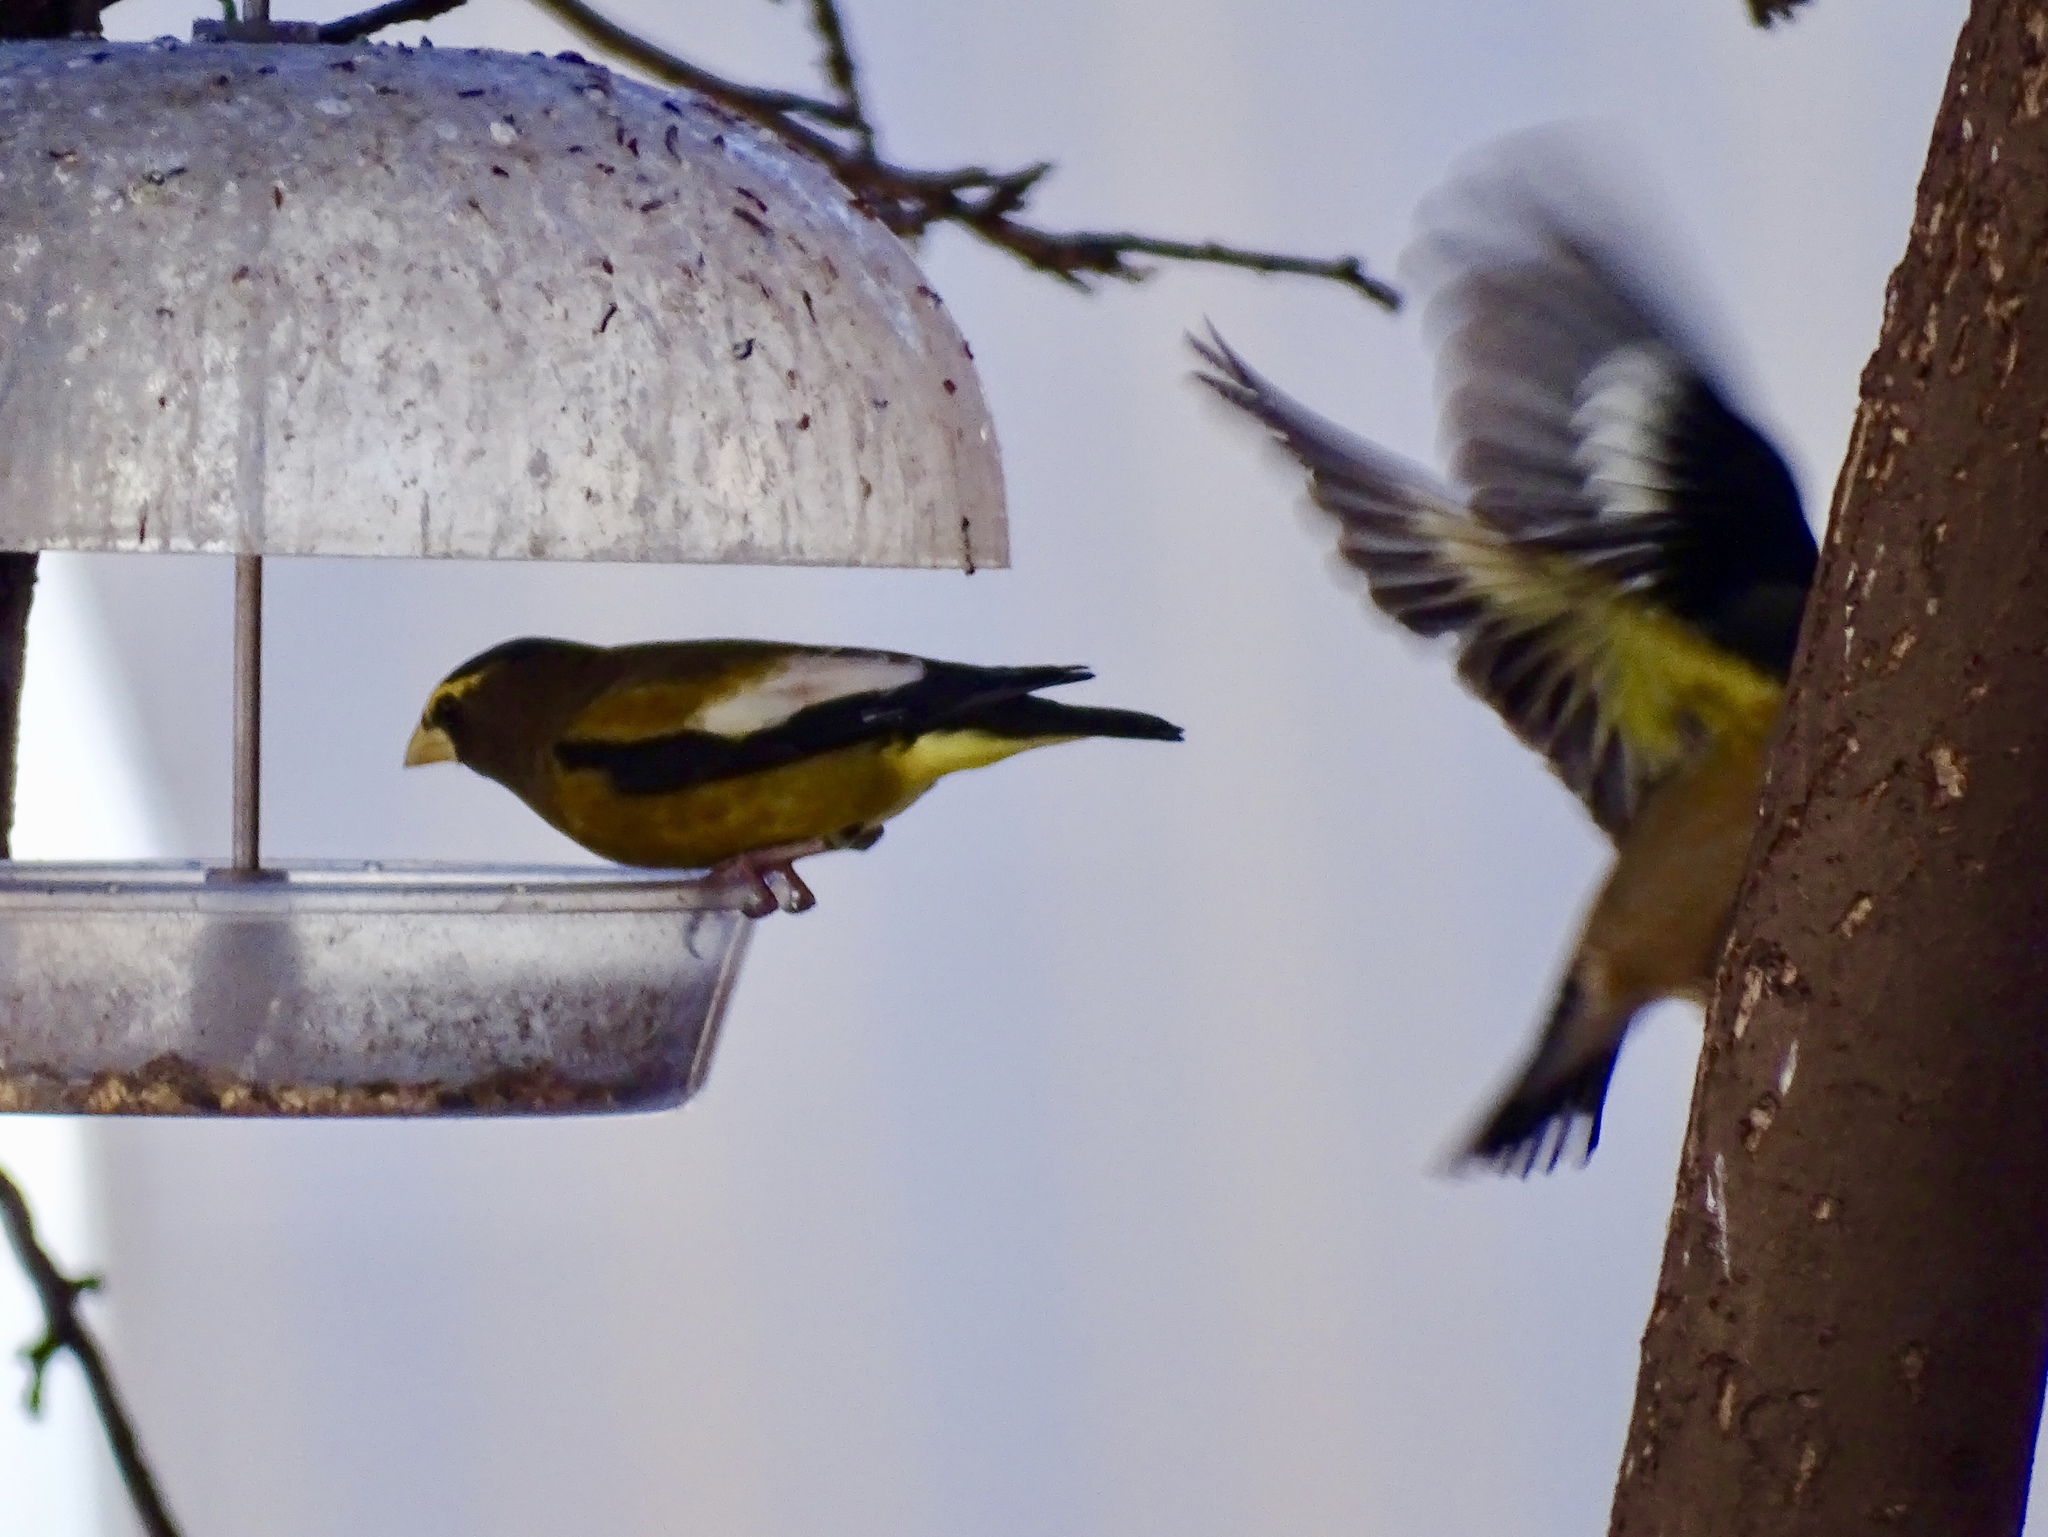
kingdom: Animalia
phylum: Chordata
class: Aves
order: Passeriformes
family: Fringillidae
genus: Hesperiphona
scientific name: Hesperiphona vespertina
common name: Evening grosbeak
